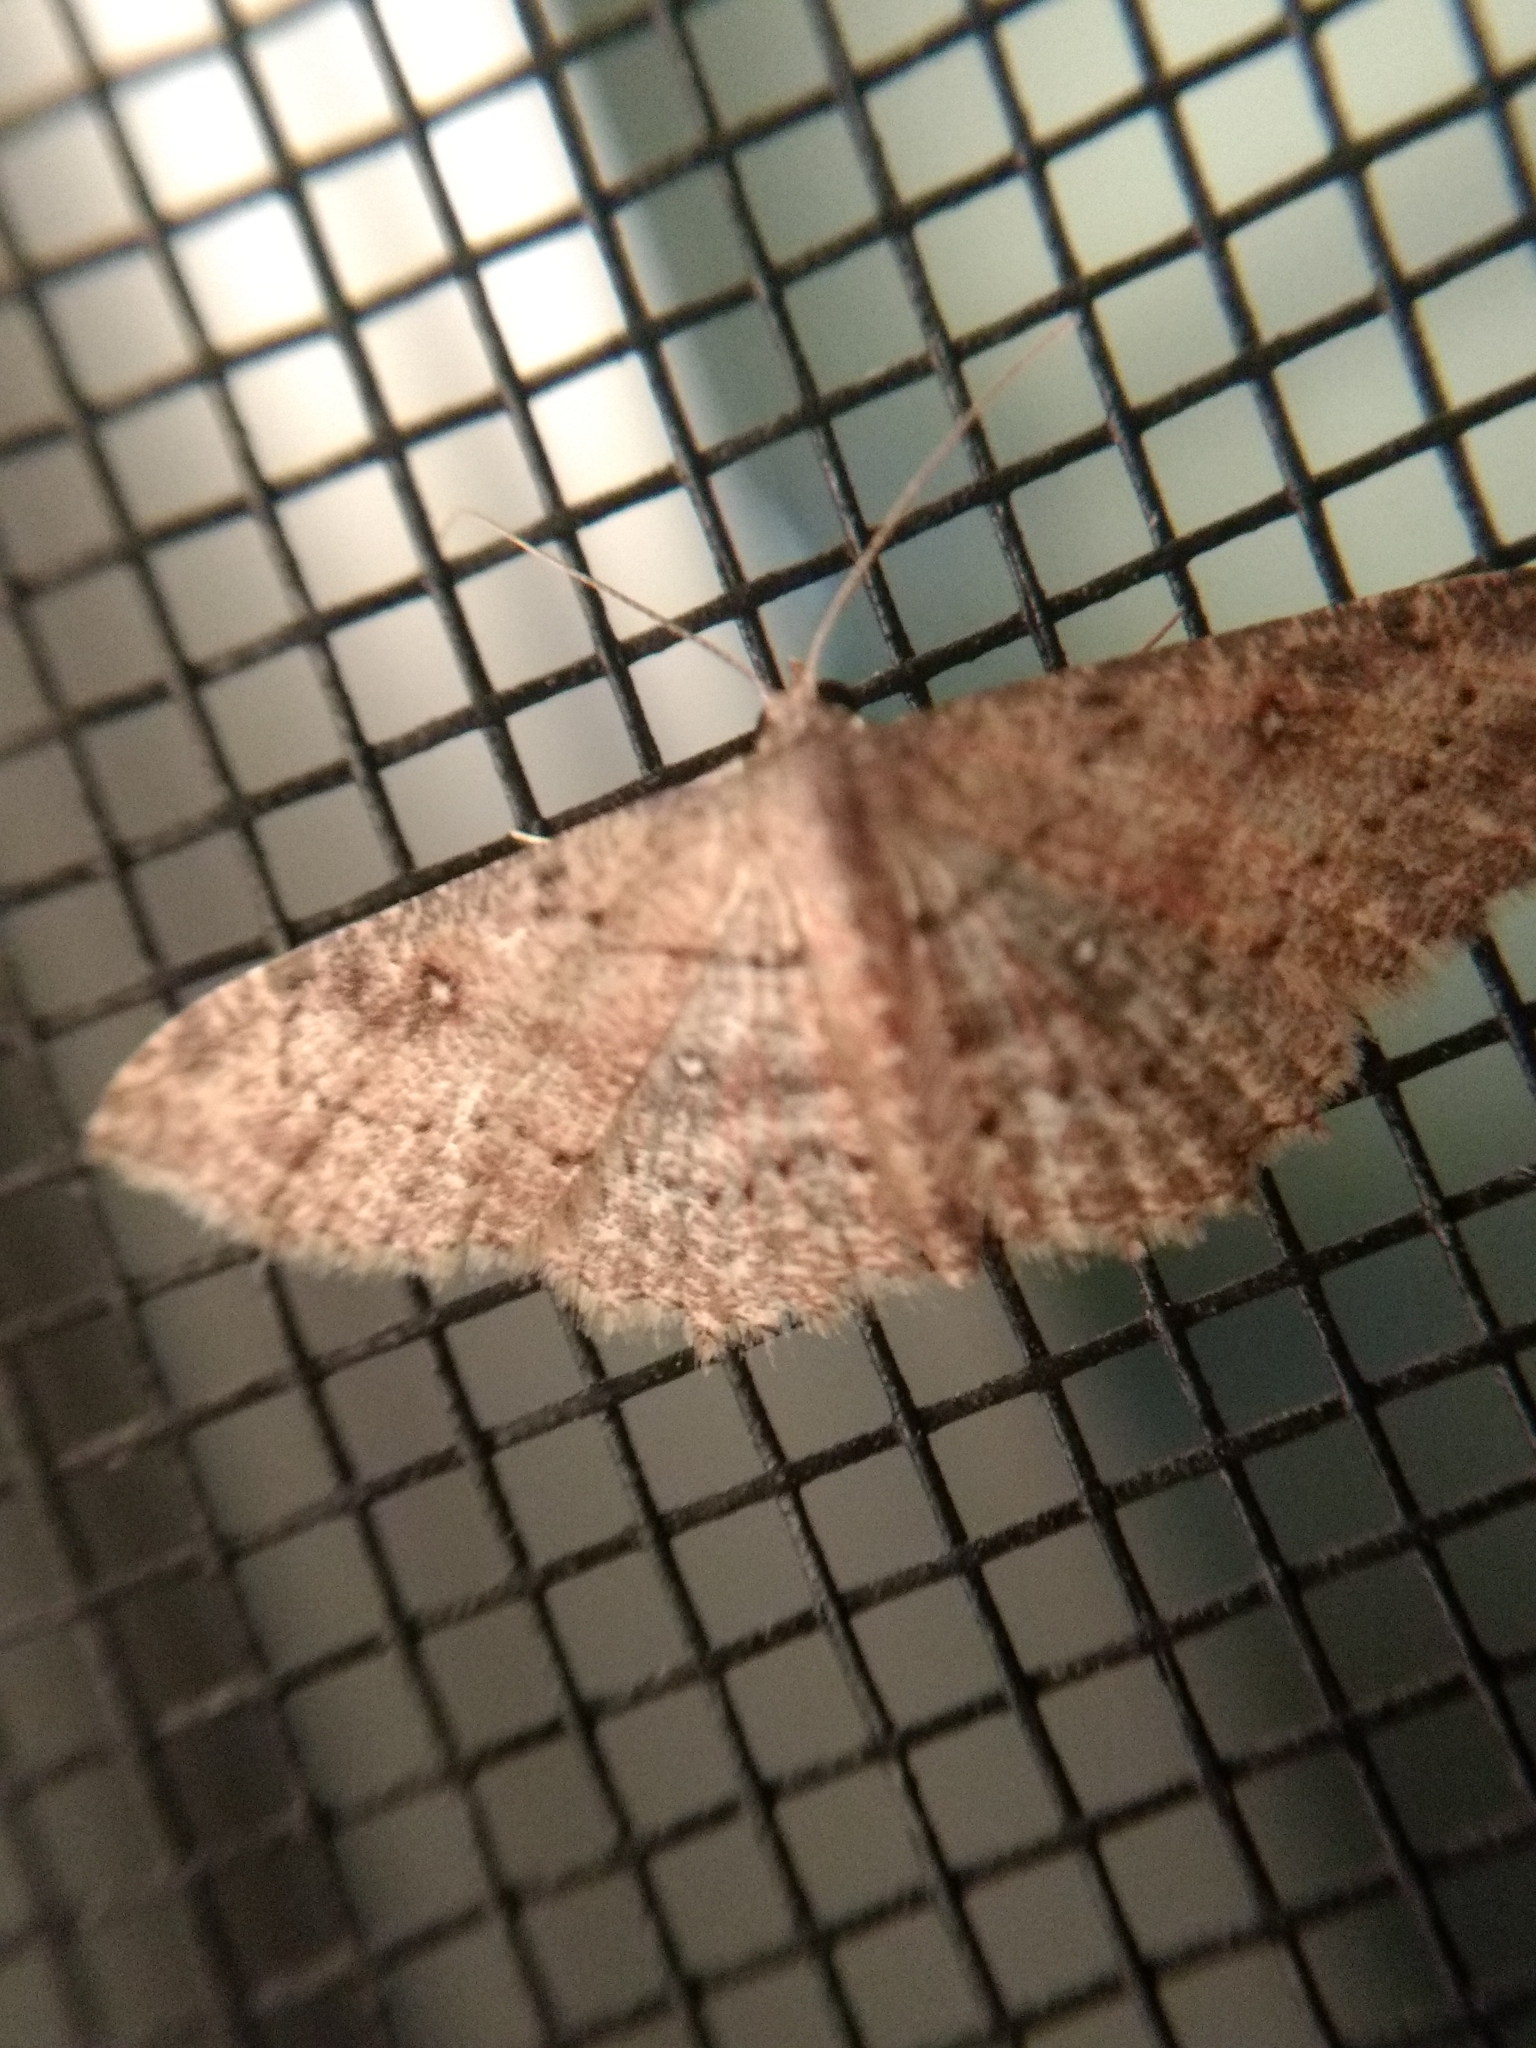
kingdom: Animalia
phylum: Arthropoda
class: Insecta
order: Lepidoptera
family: Geometridae
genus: Cyclophora
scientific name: Cyclophora nanaria
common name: Cankerworm
